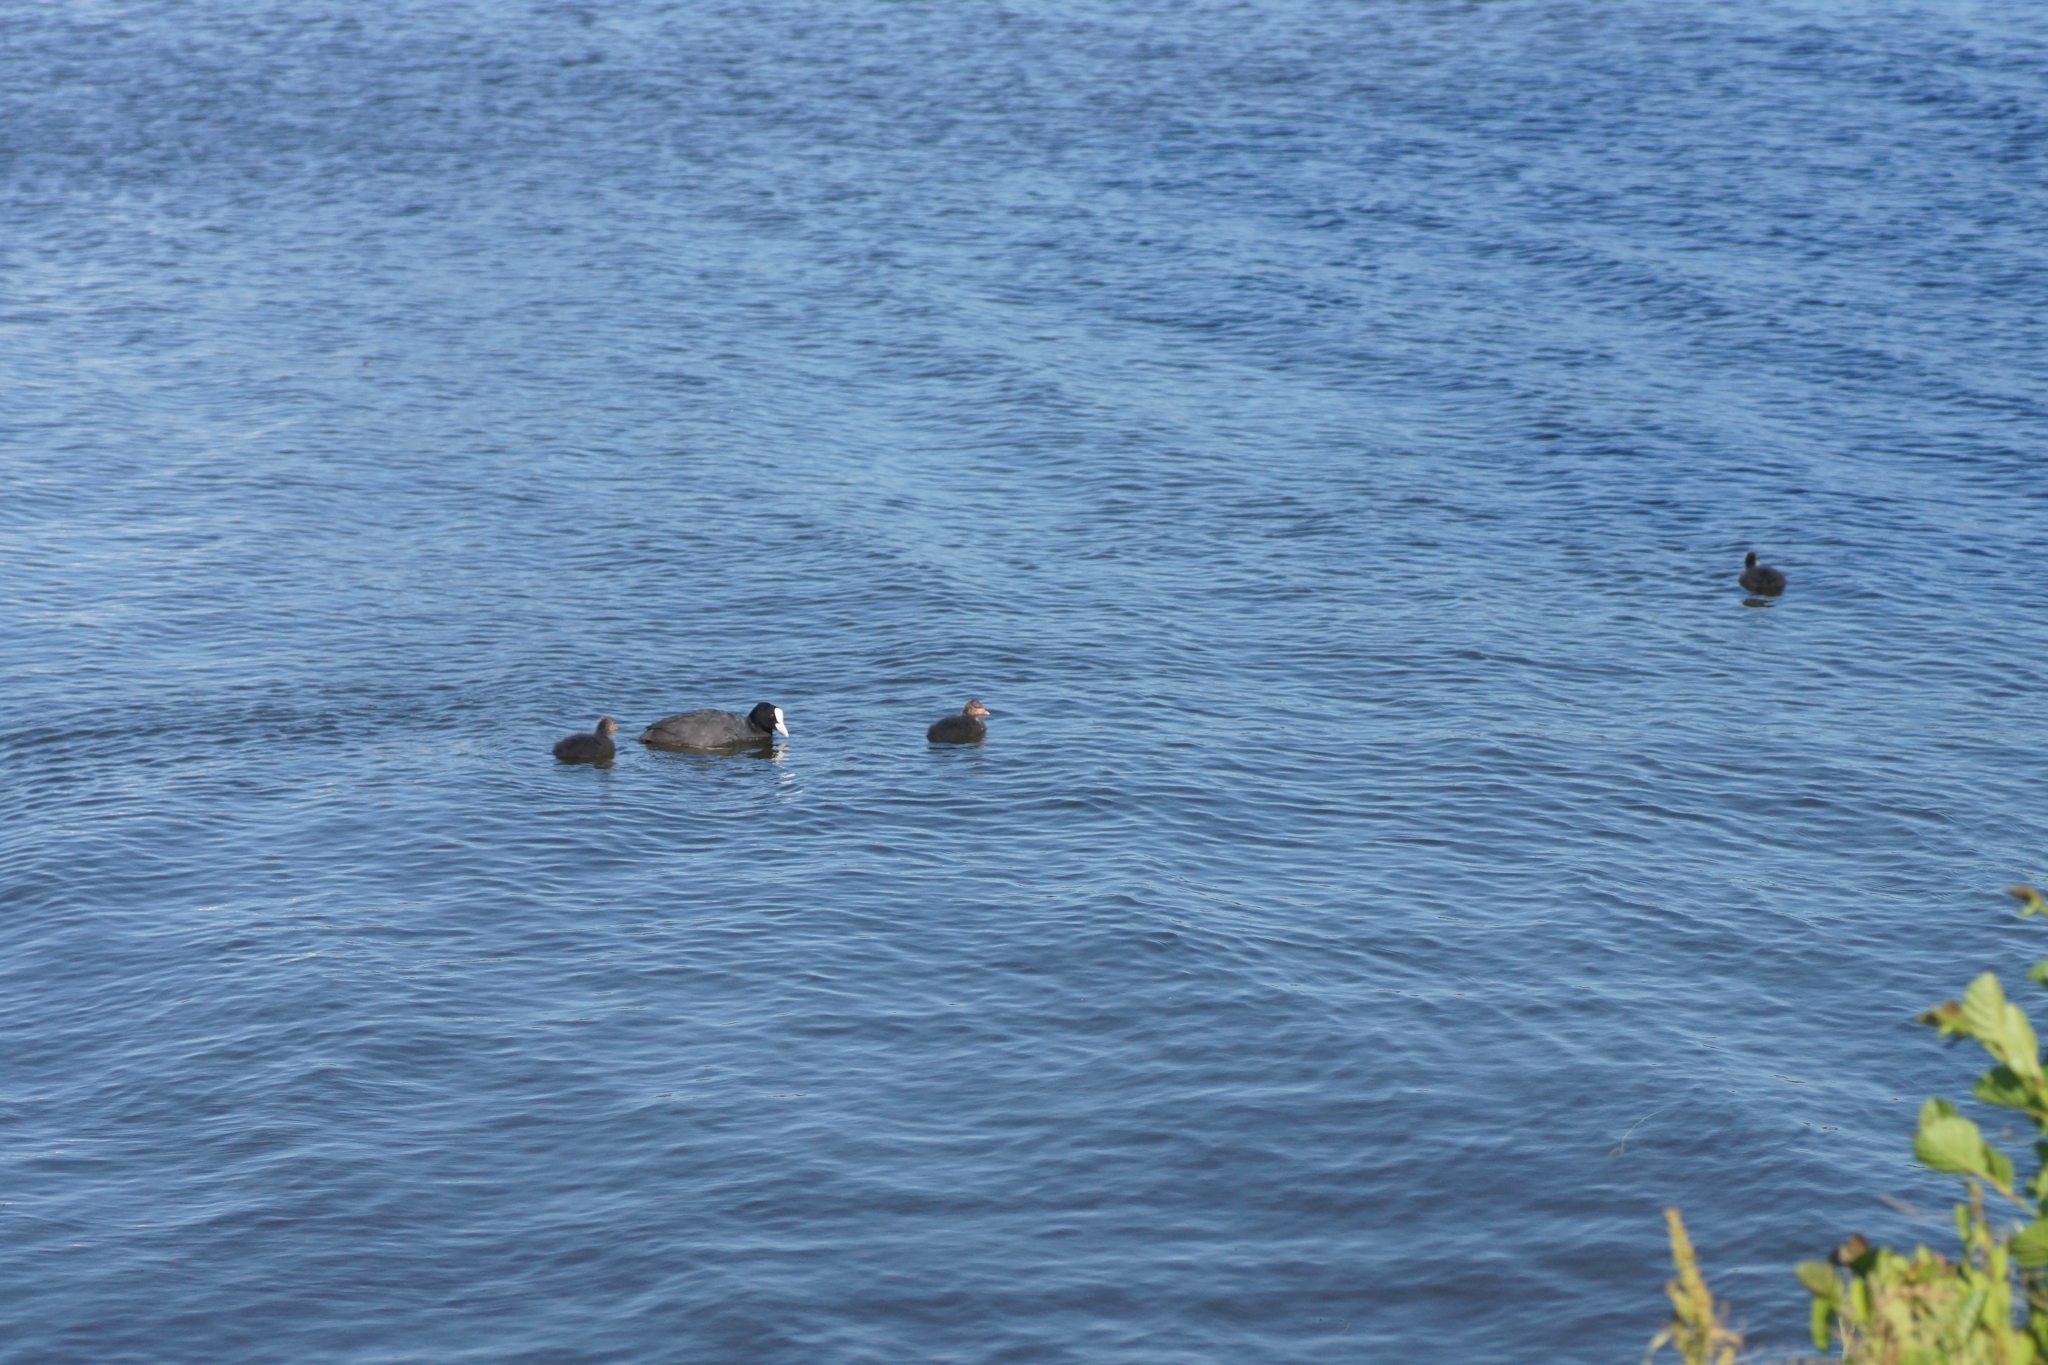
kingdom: Animalia
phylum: Chordata
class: Aves
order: Gruiformes
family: Rallidae
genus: Fulica
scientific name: Fulica atra
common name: Eurasian coot
